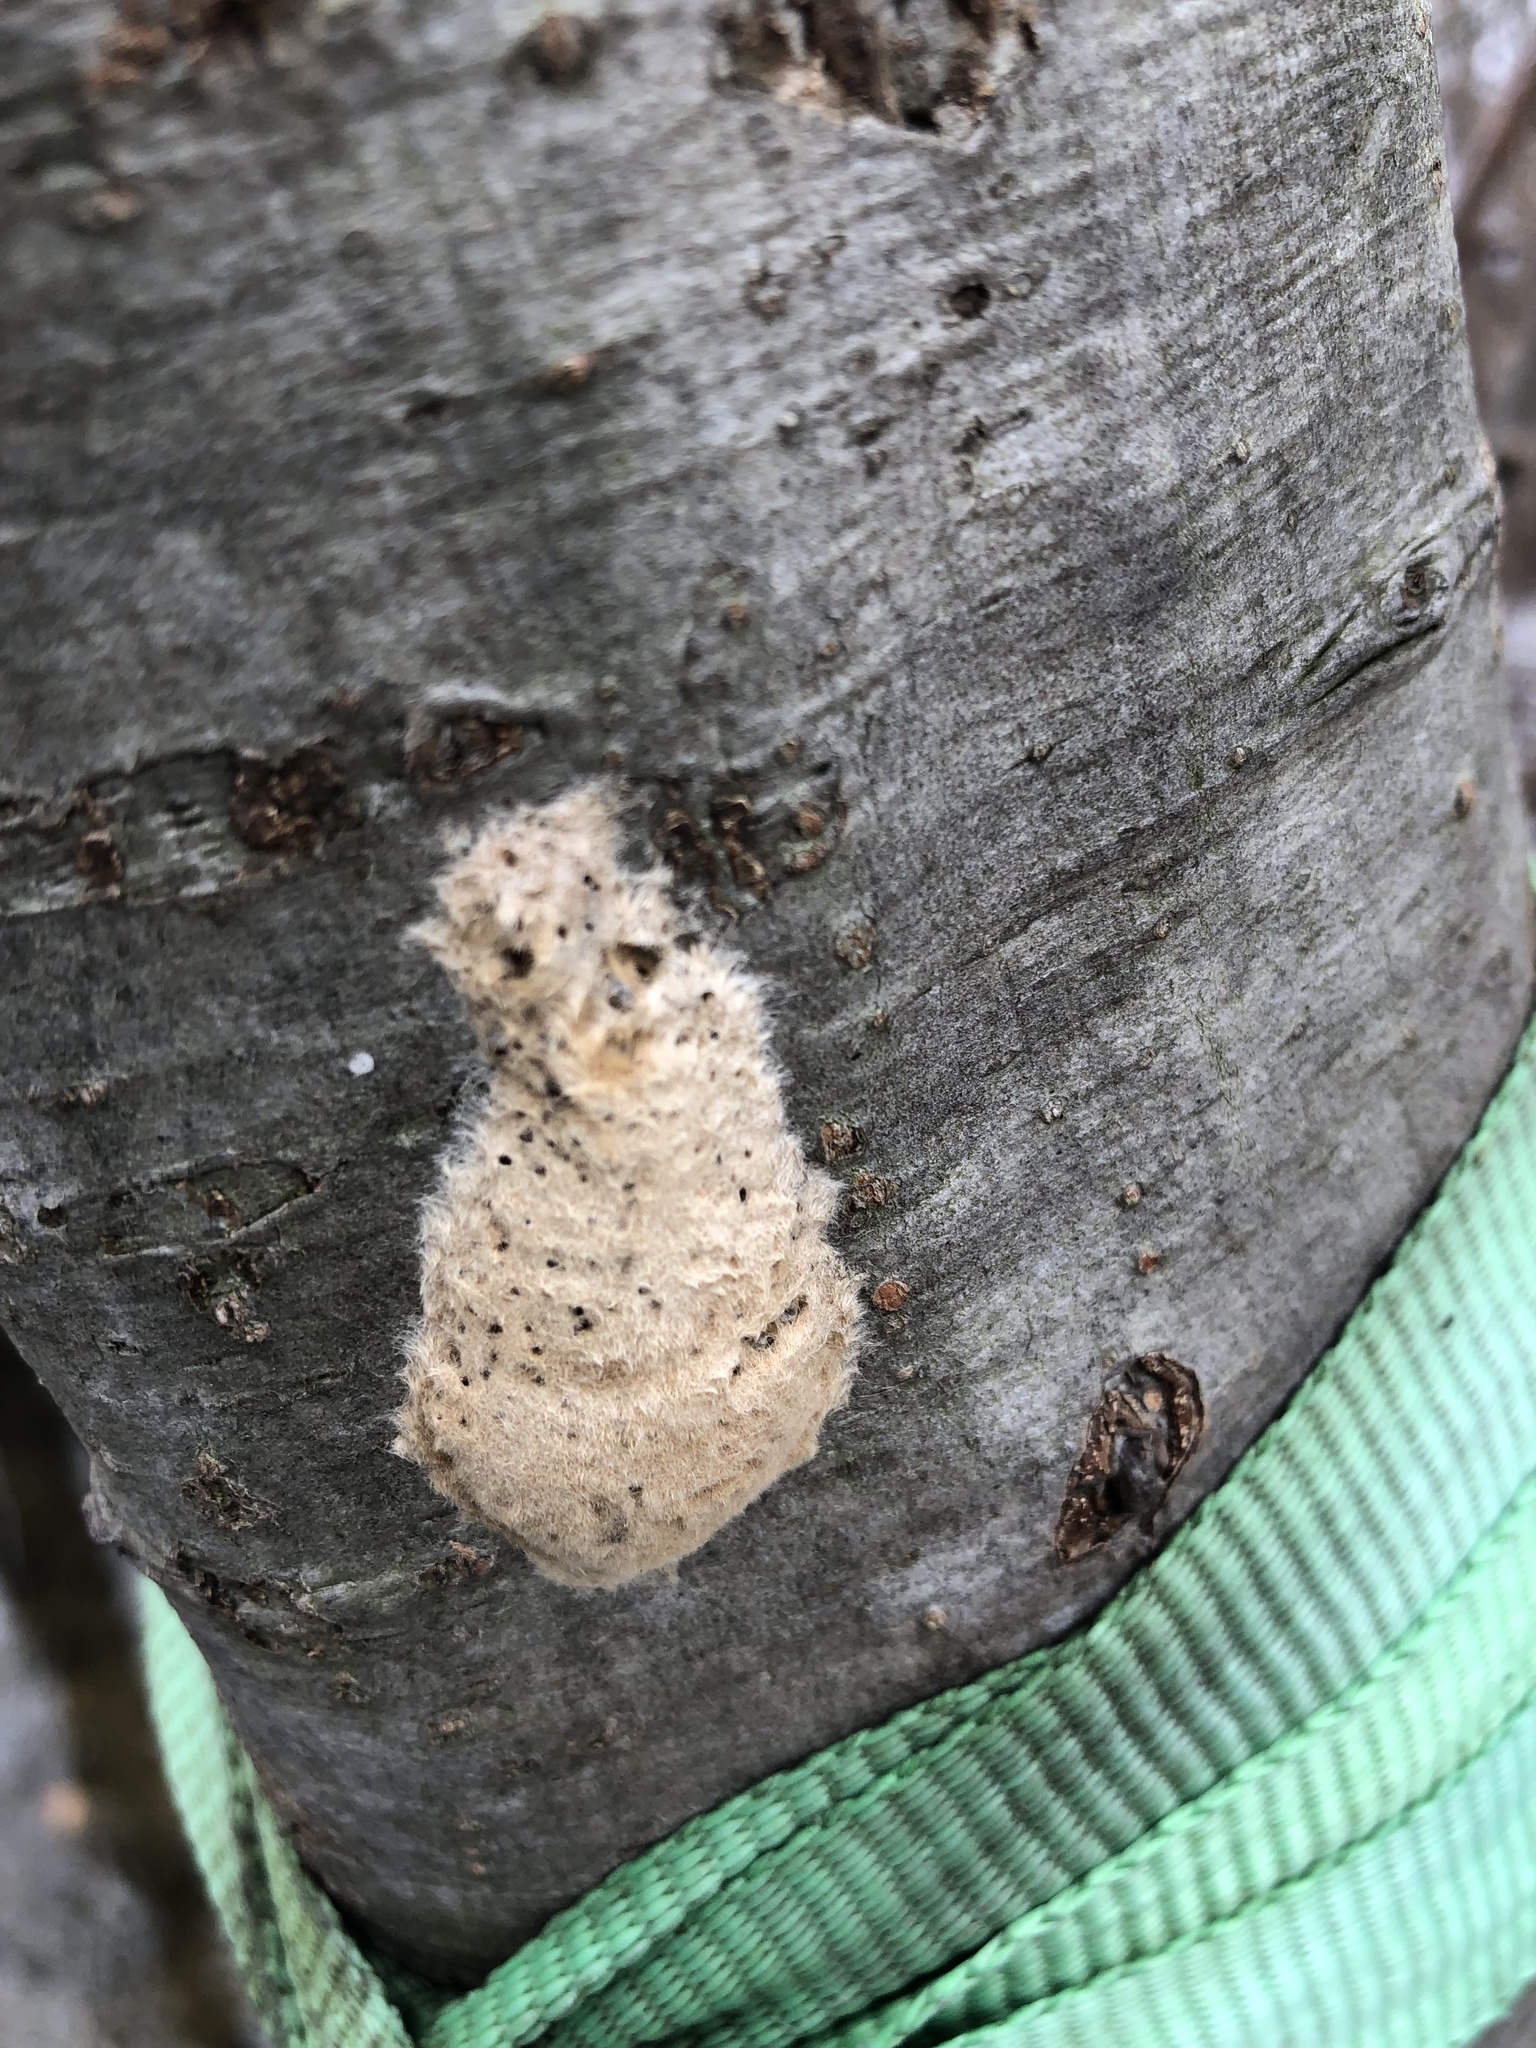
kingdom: Animalia
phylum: Arthropoda
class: Insecta
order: Lepidoptera
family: Erebidae
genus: Lymantria
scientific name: Lymantria dispar
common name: Gypsy moth
